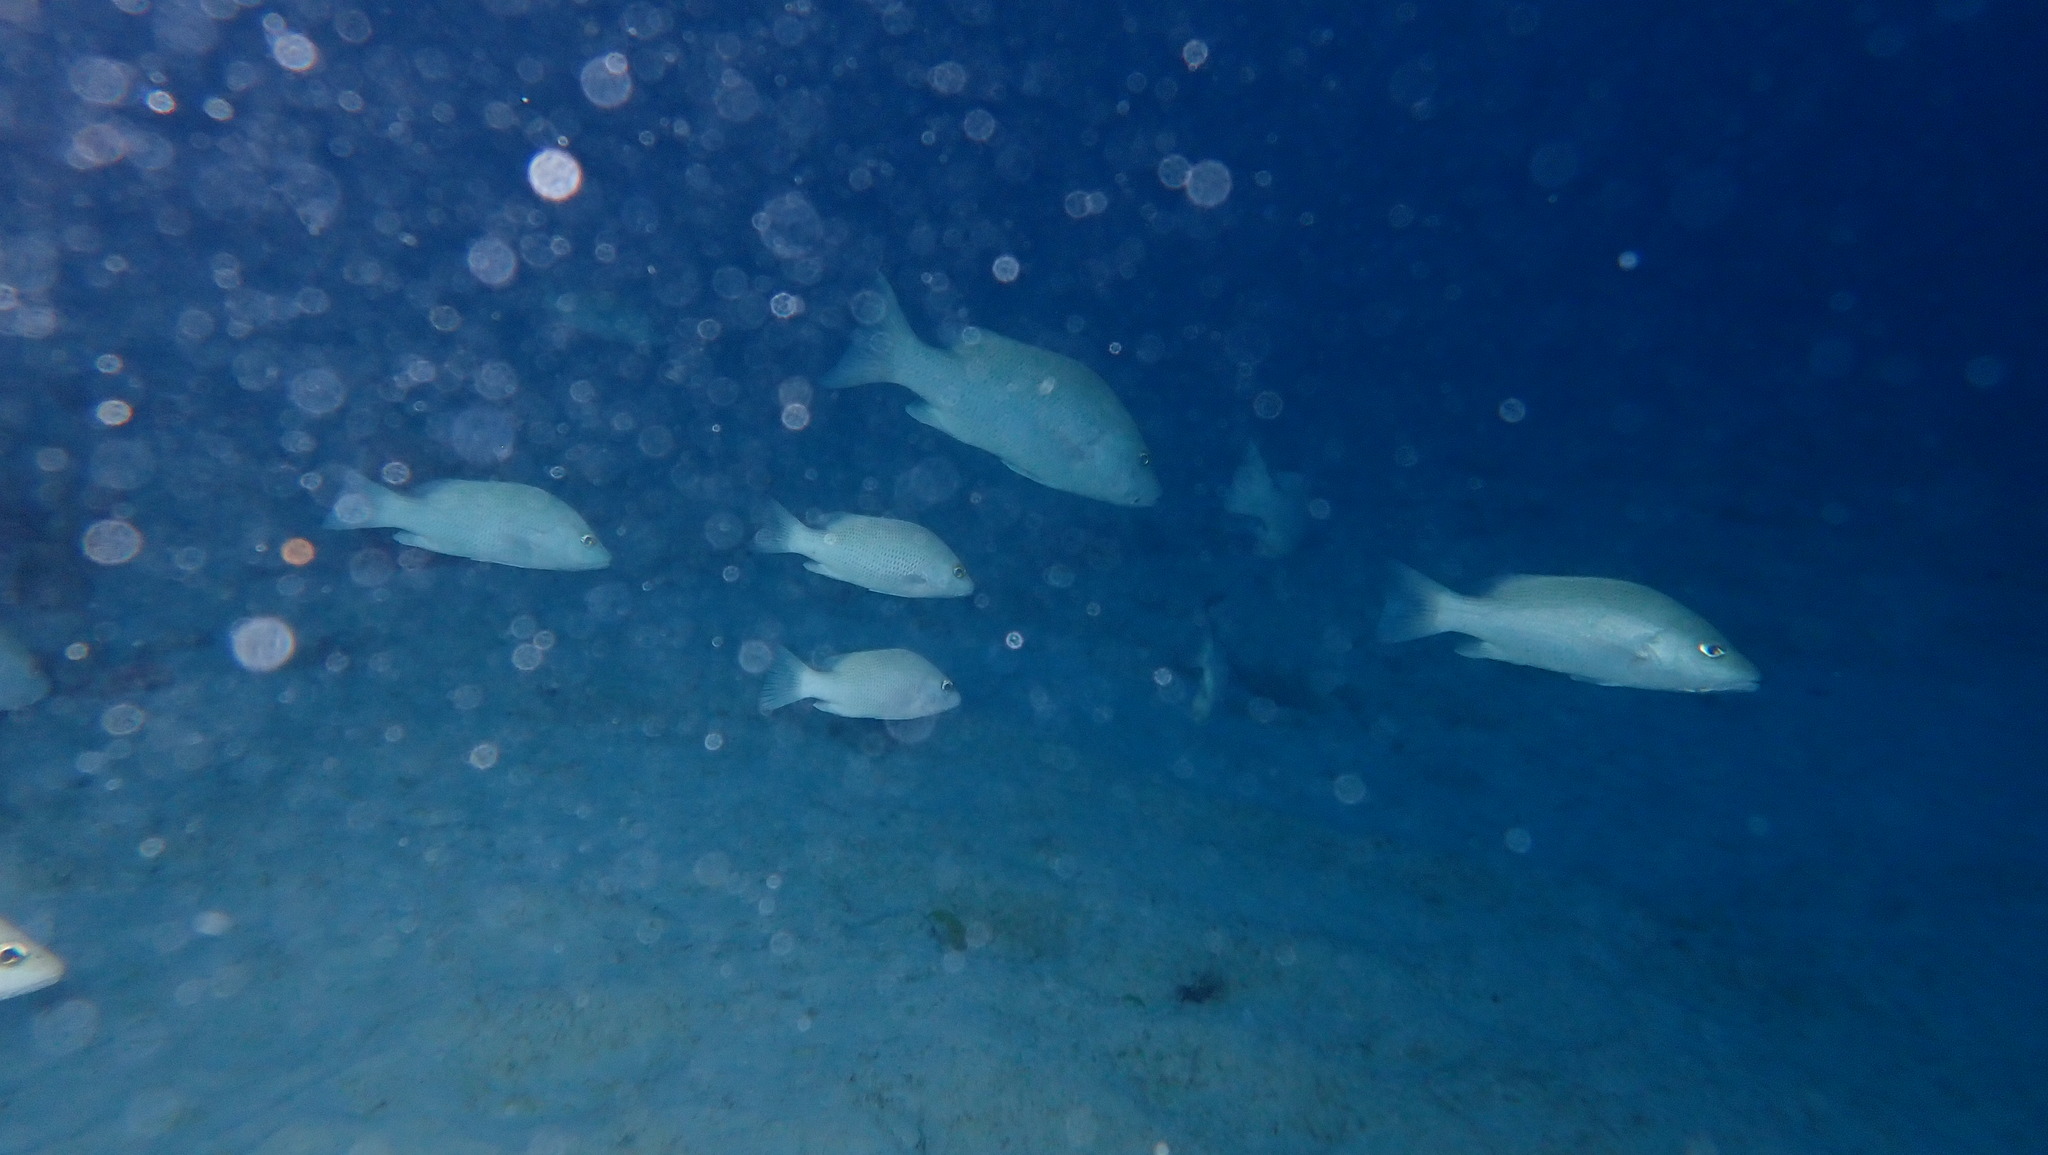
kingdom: Animalia
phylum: Chordata
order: Perciformes
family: Lutjanidae
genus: Lutjanus
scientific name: Lutjanus griseus
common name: Gray snapper
